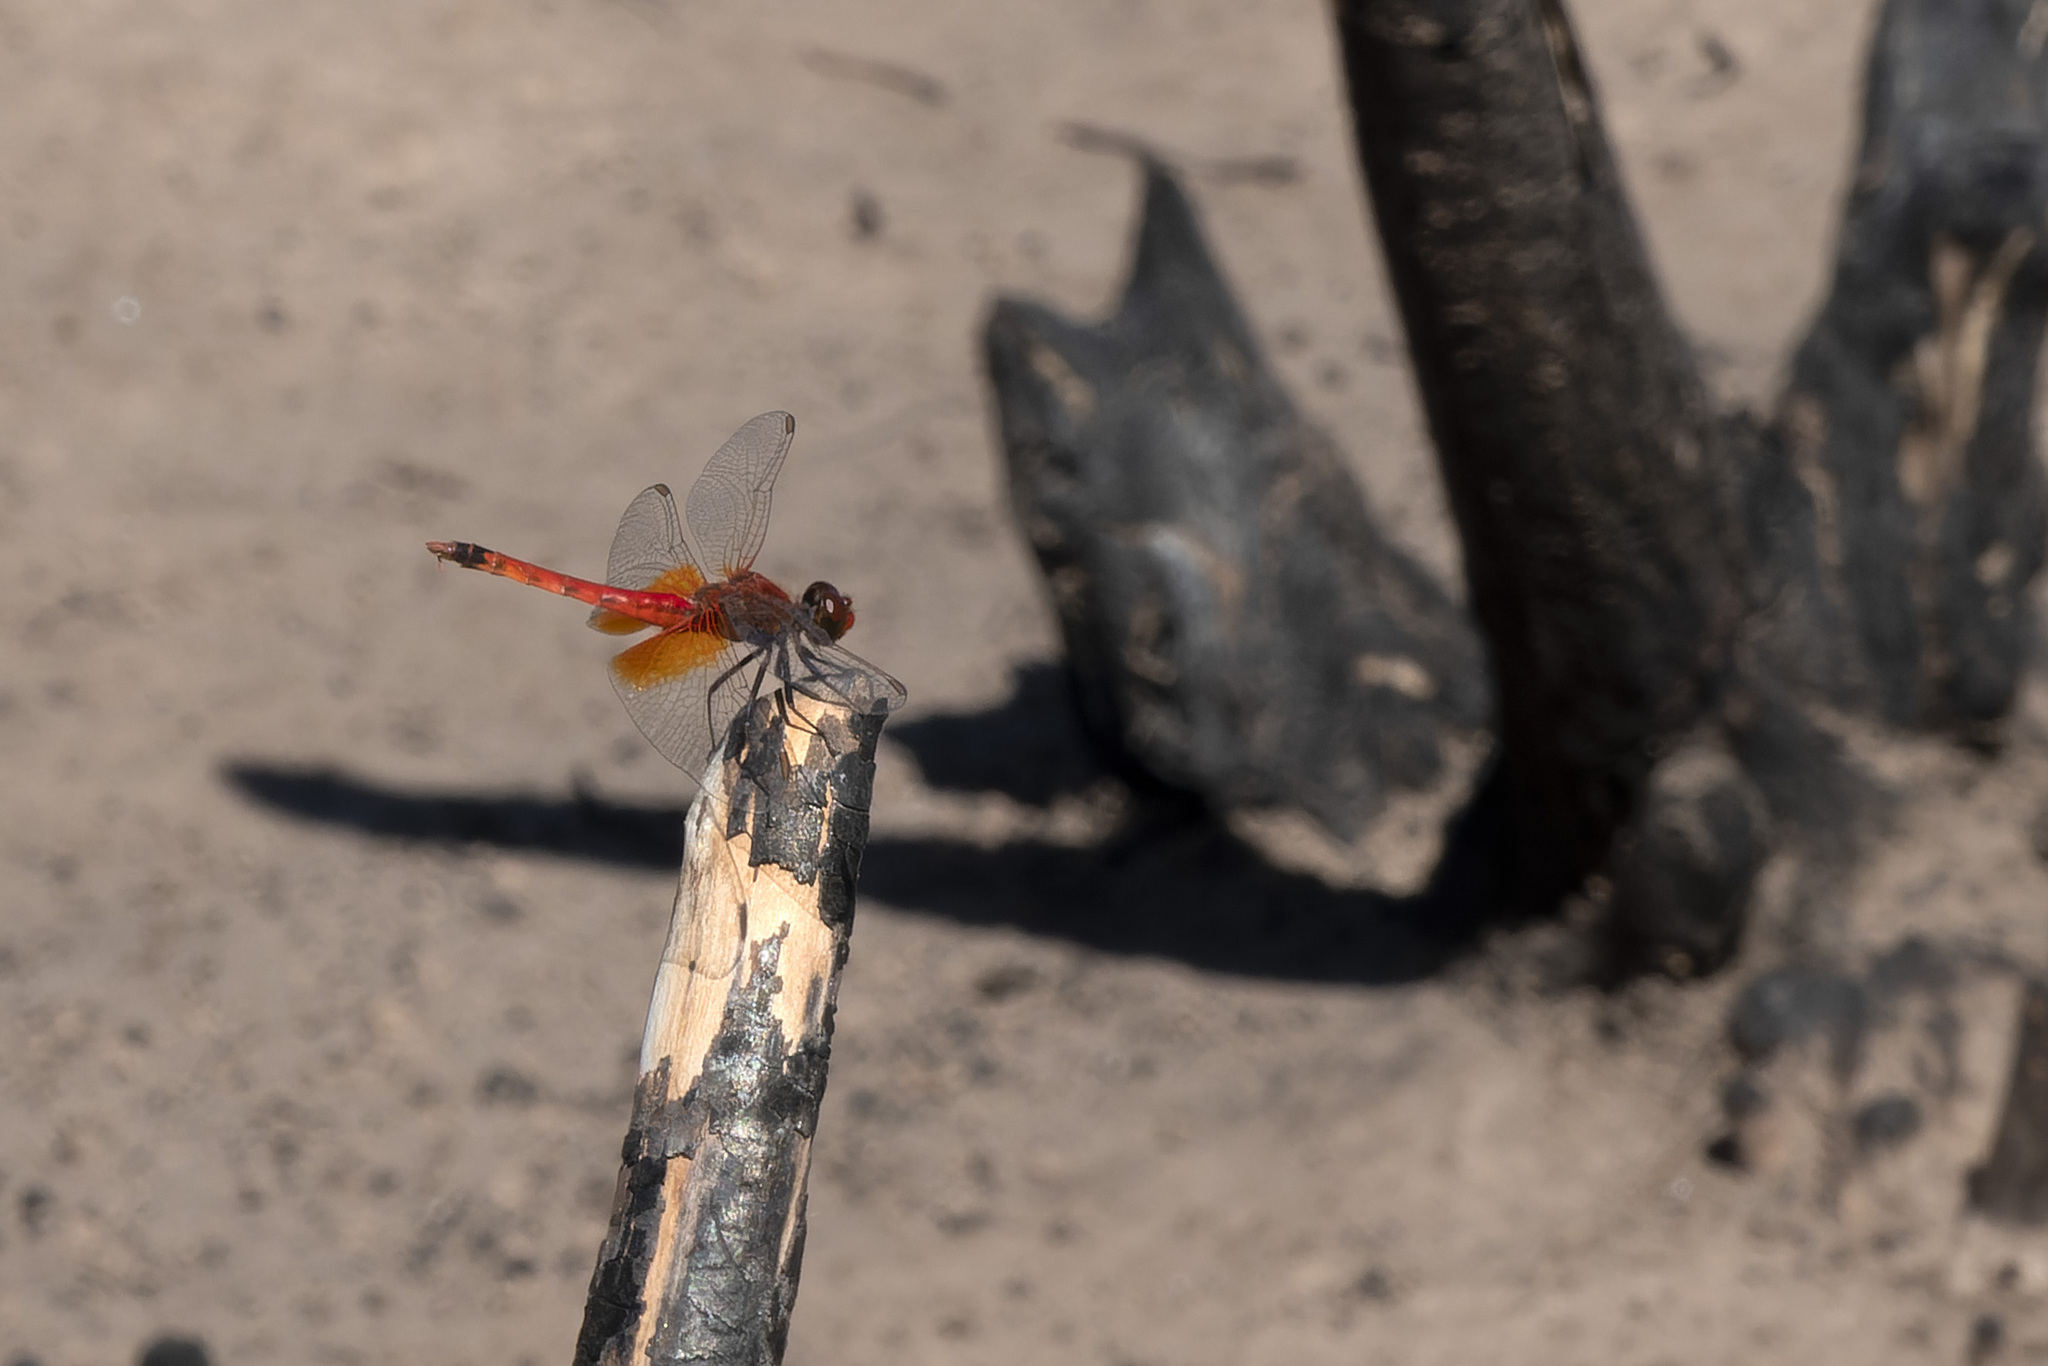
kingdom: Animalia
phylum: Arthropoda
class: Insecta
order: Odonata
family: Libellulidae
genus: Erythrodiplax
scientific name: Erythrodiplax corallina
